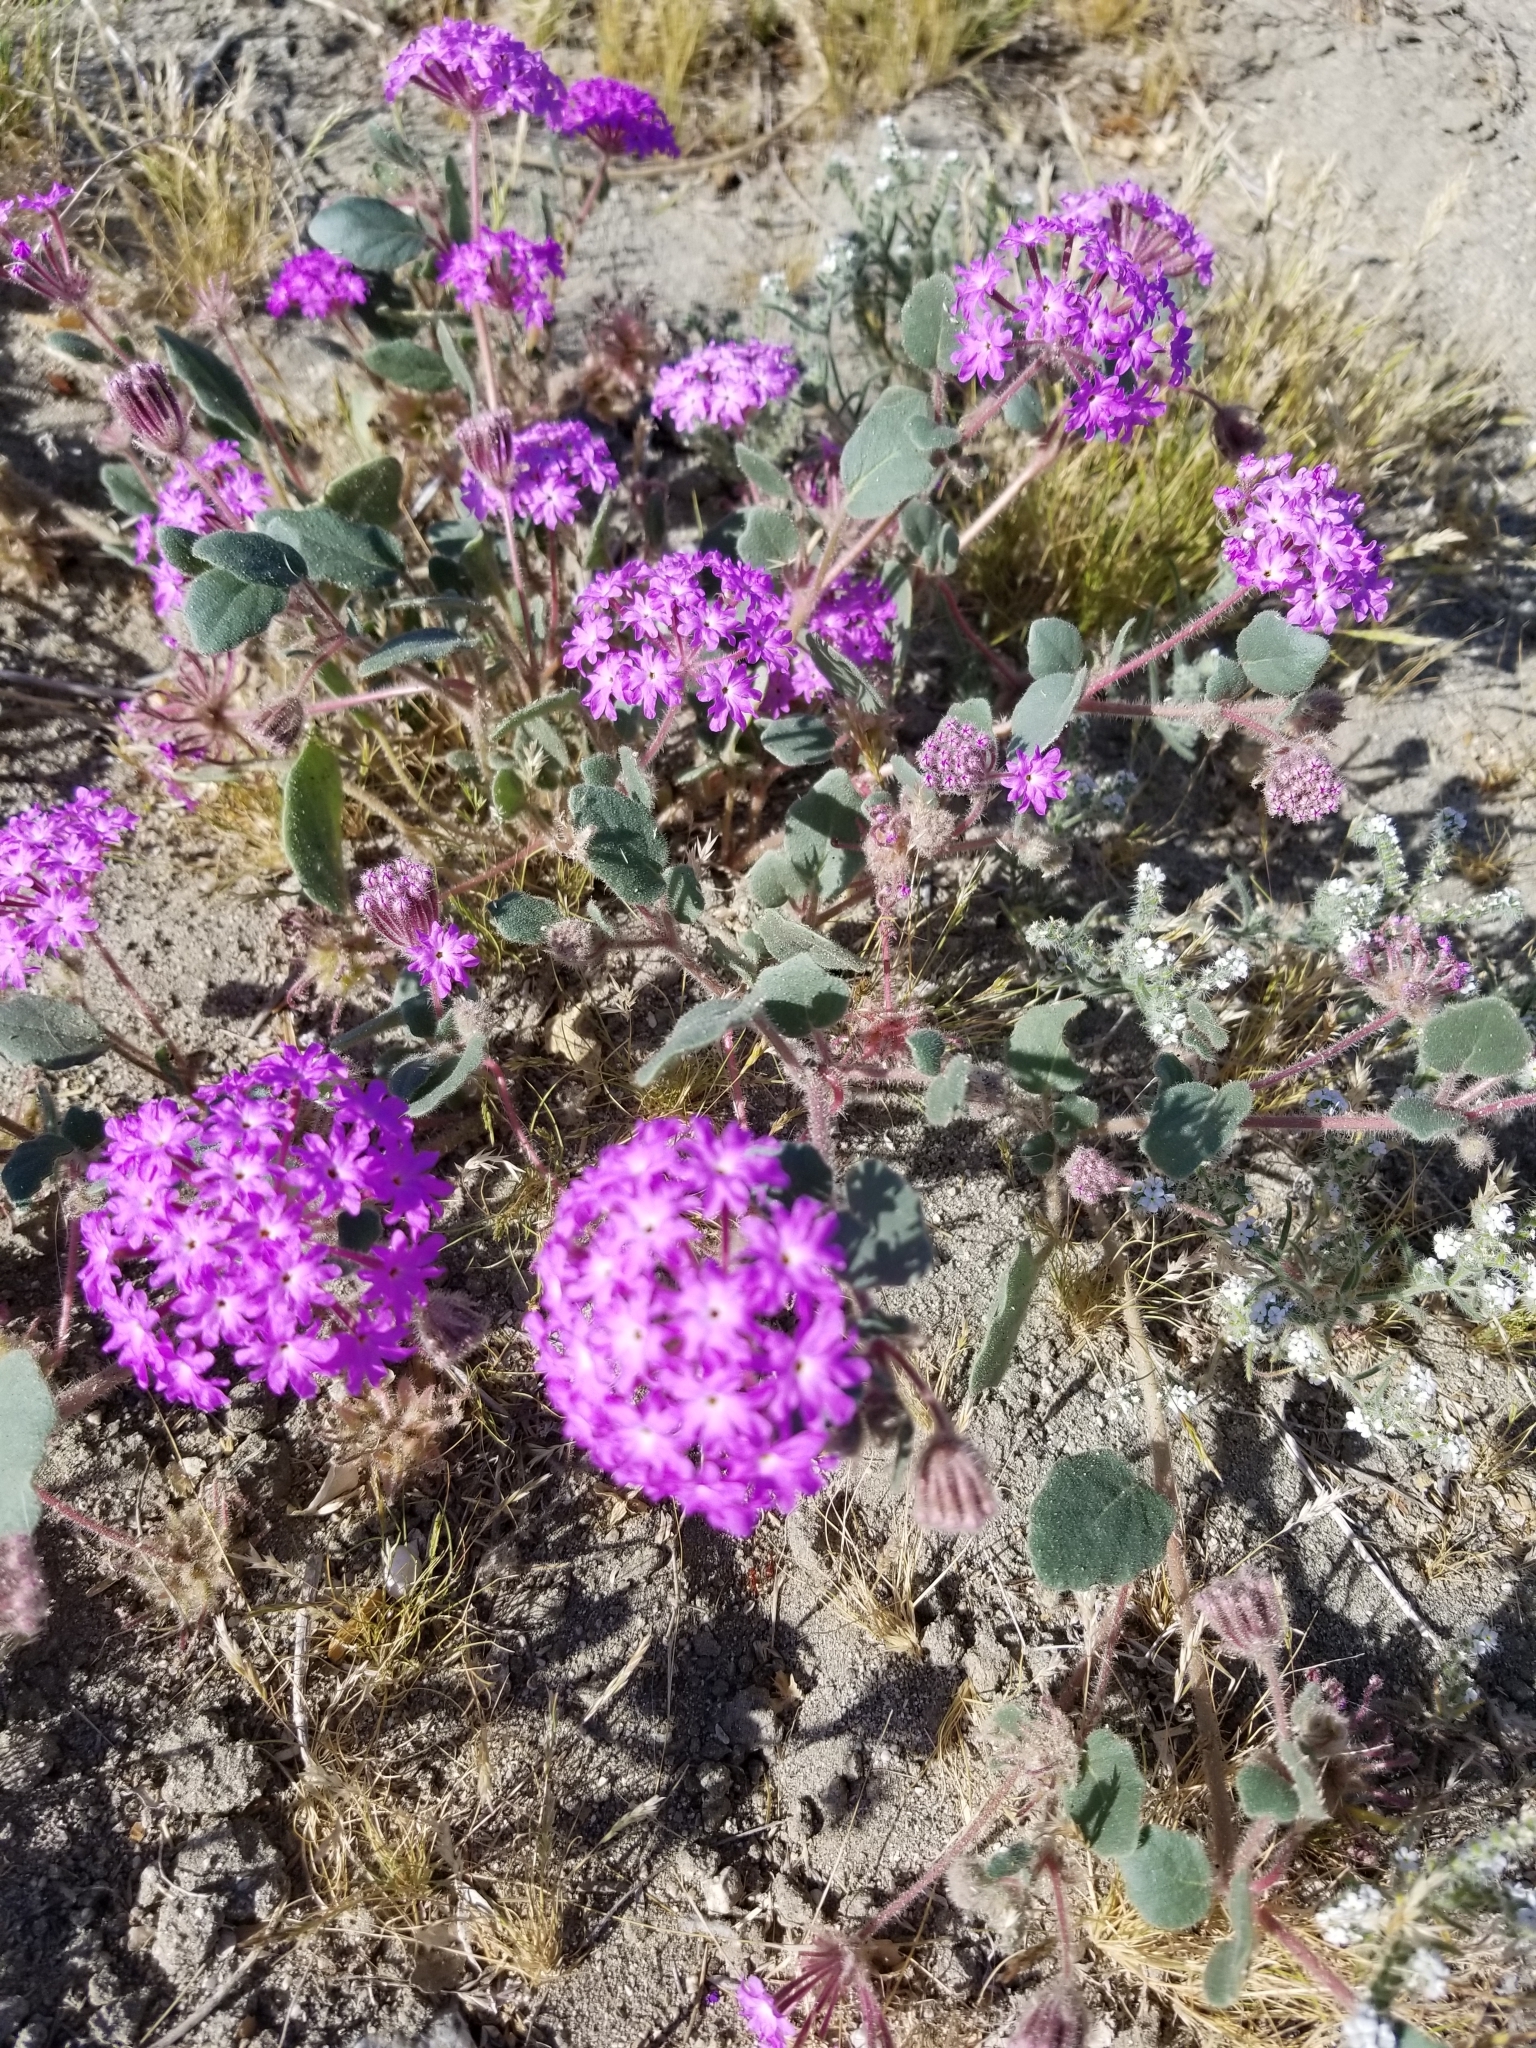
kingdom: Plantae
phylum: Tracheophyta
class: Magnoliopsida
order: Caryophyllales
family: Nyctaginaceae
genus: Abronia
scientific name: Abronia villosa
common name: Desert sand-verbena
